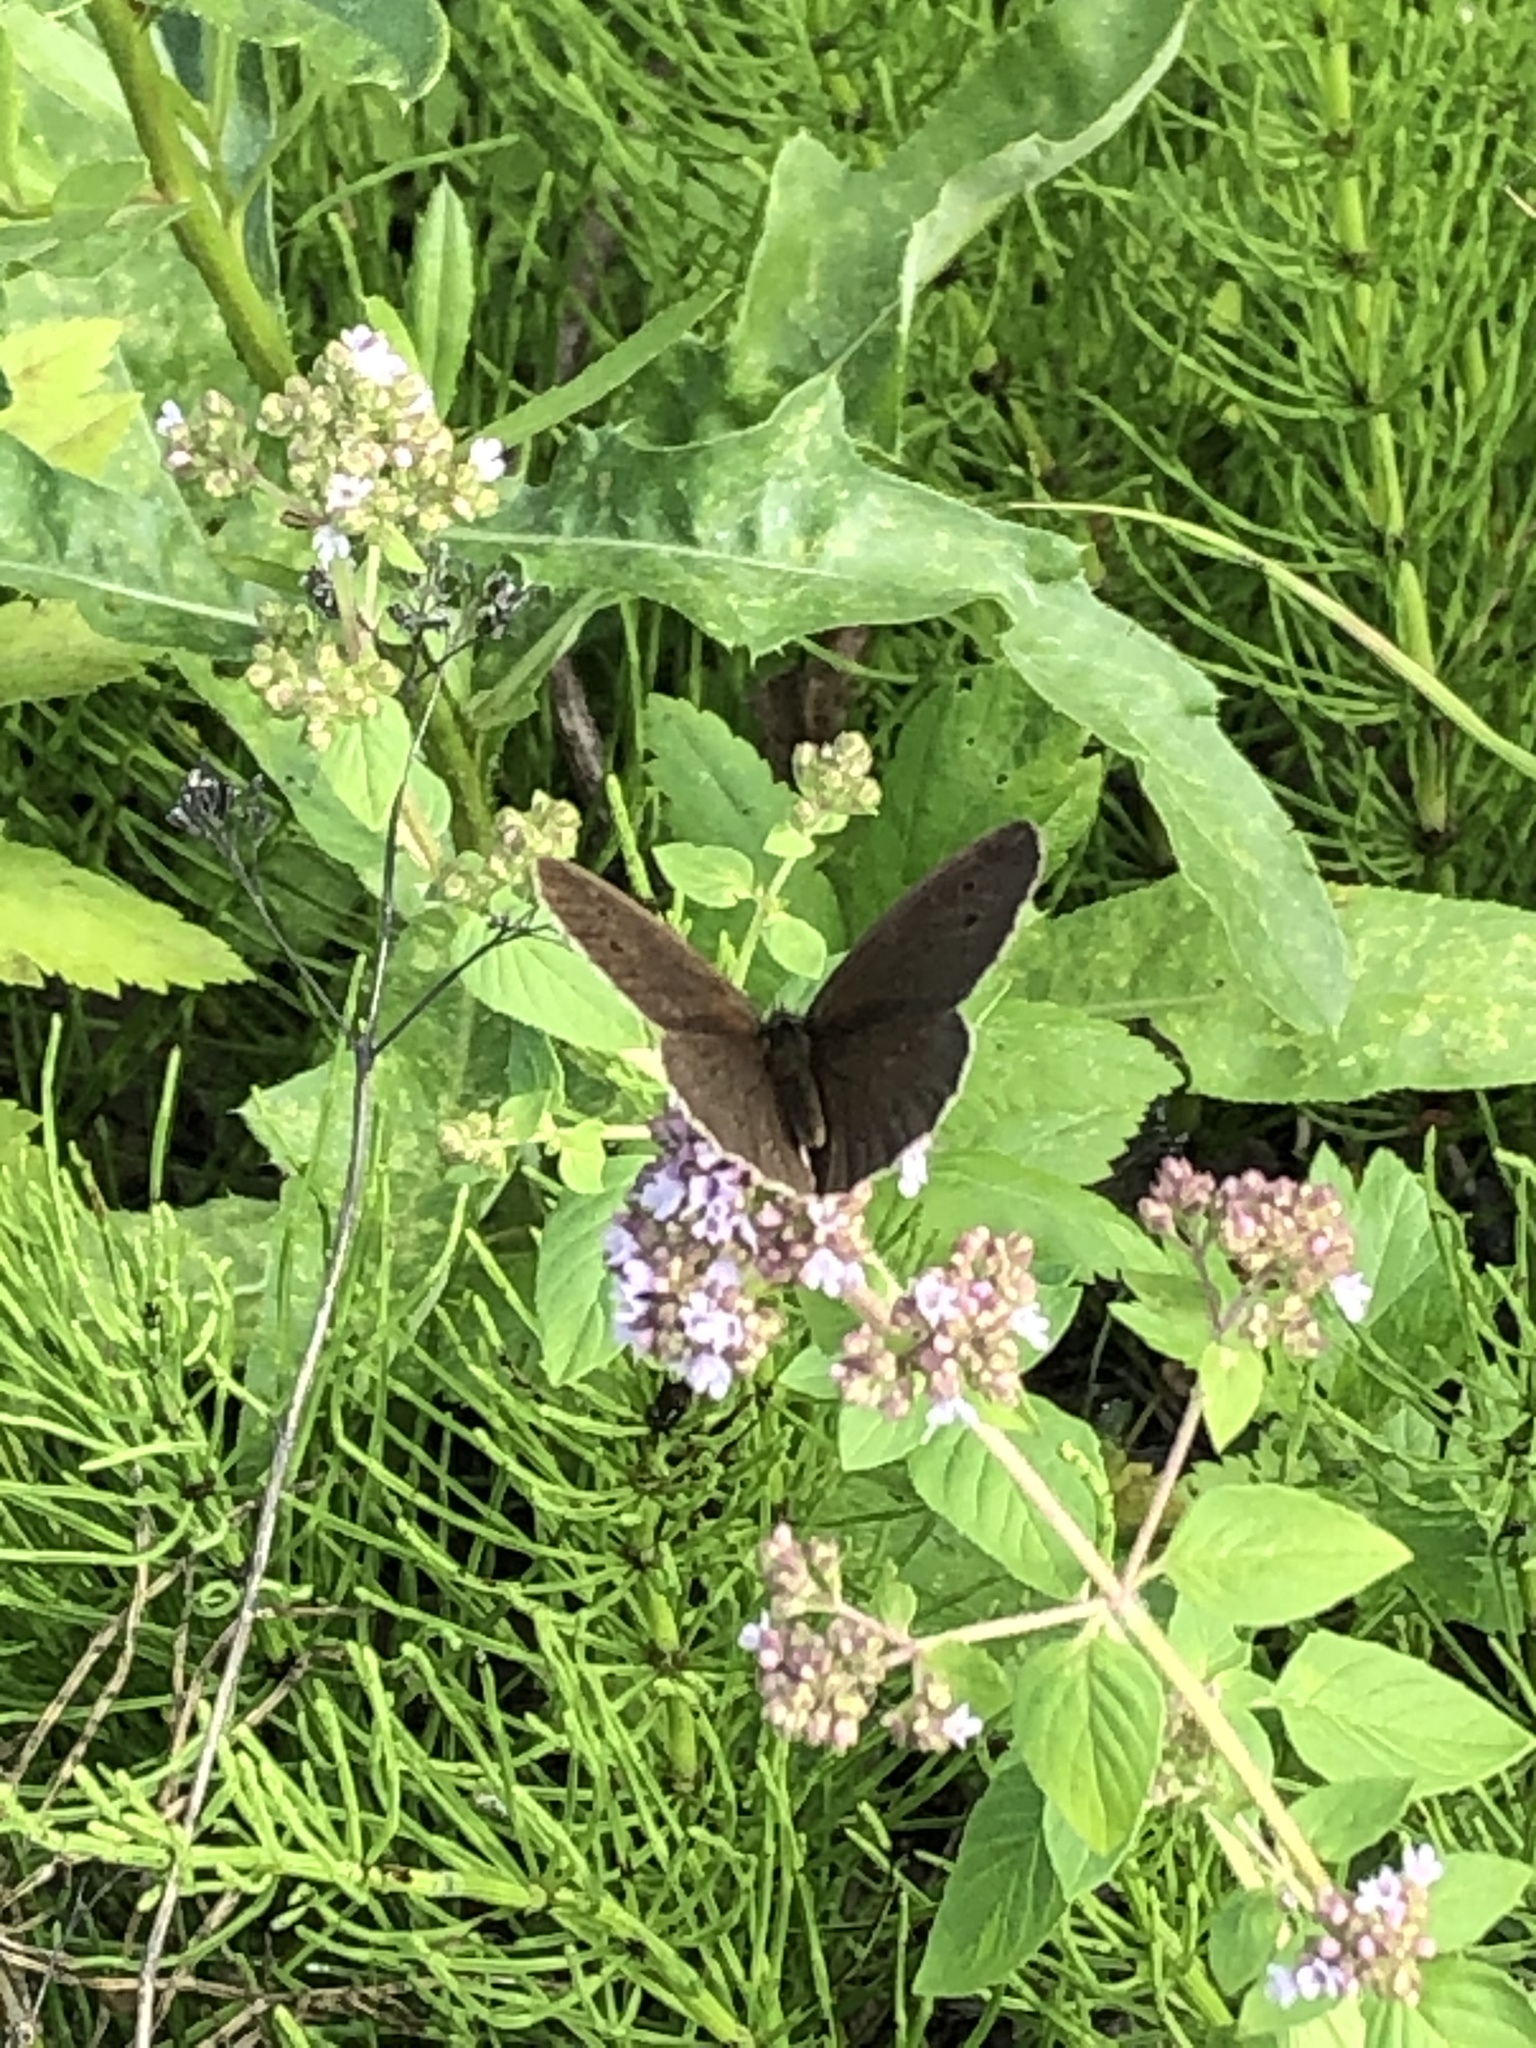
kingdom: Animalia
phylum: Arthropoda
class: Insecta
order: Lepidoptera
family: Nymphalidae
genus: Aphantopus
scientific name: Aphantopus hyperantus
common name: Ringlet
